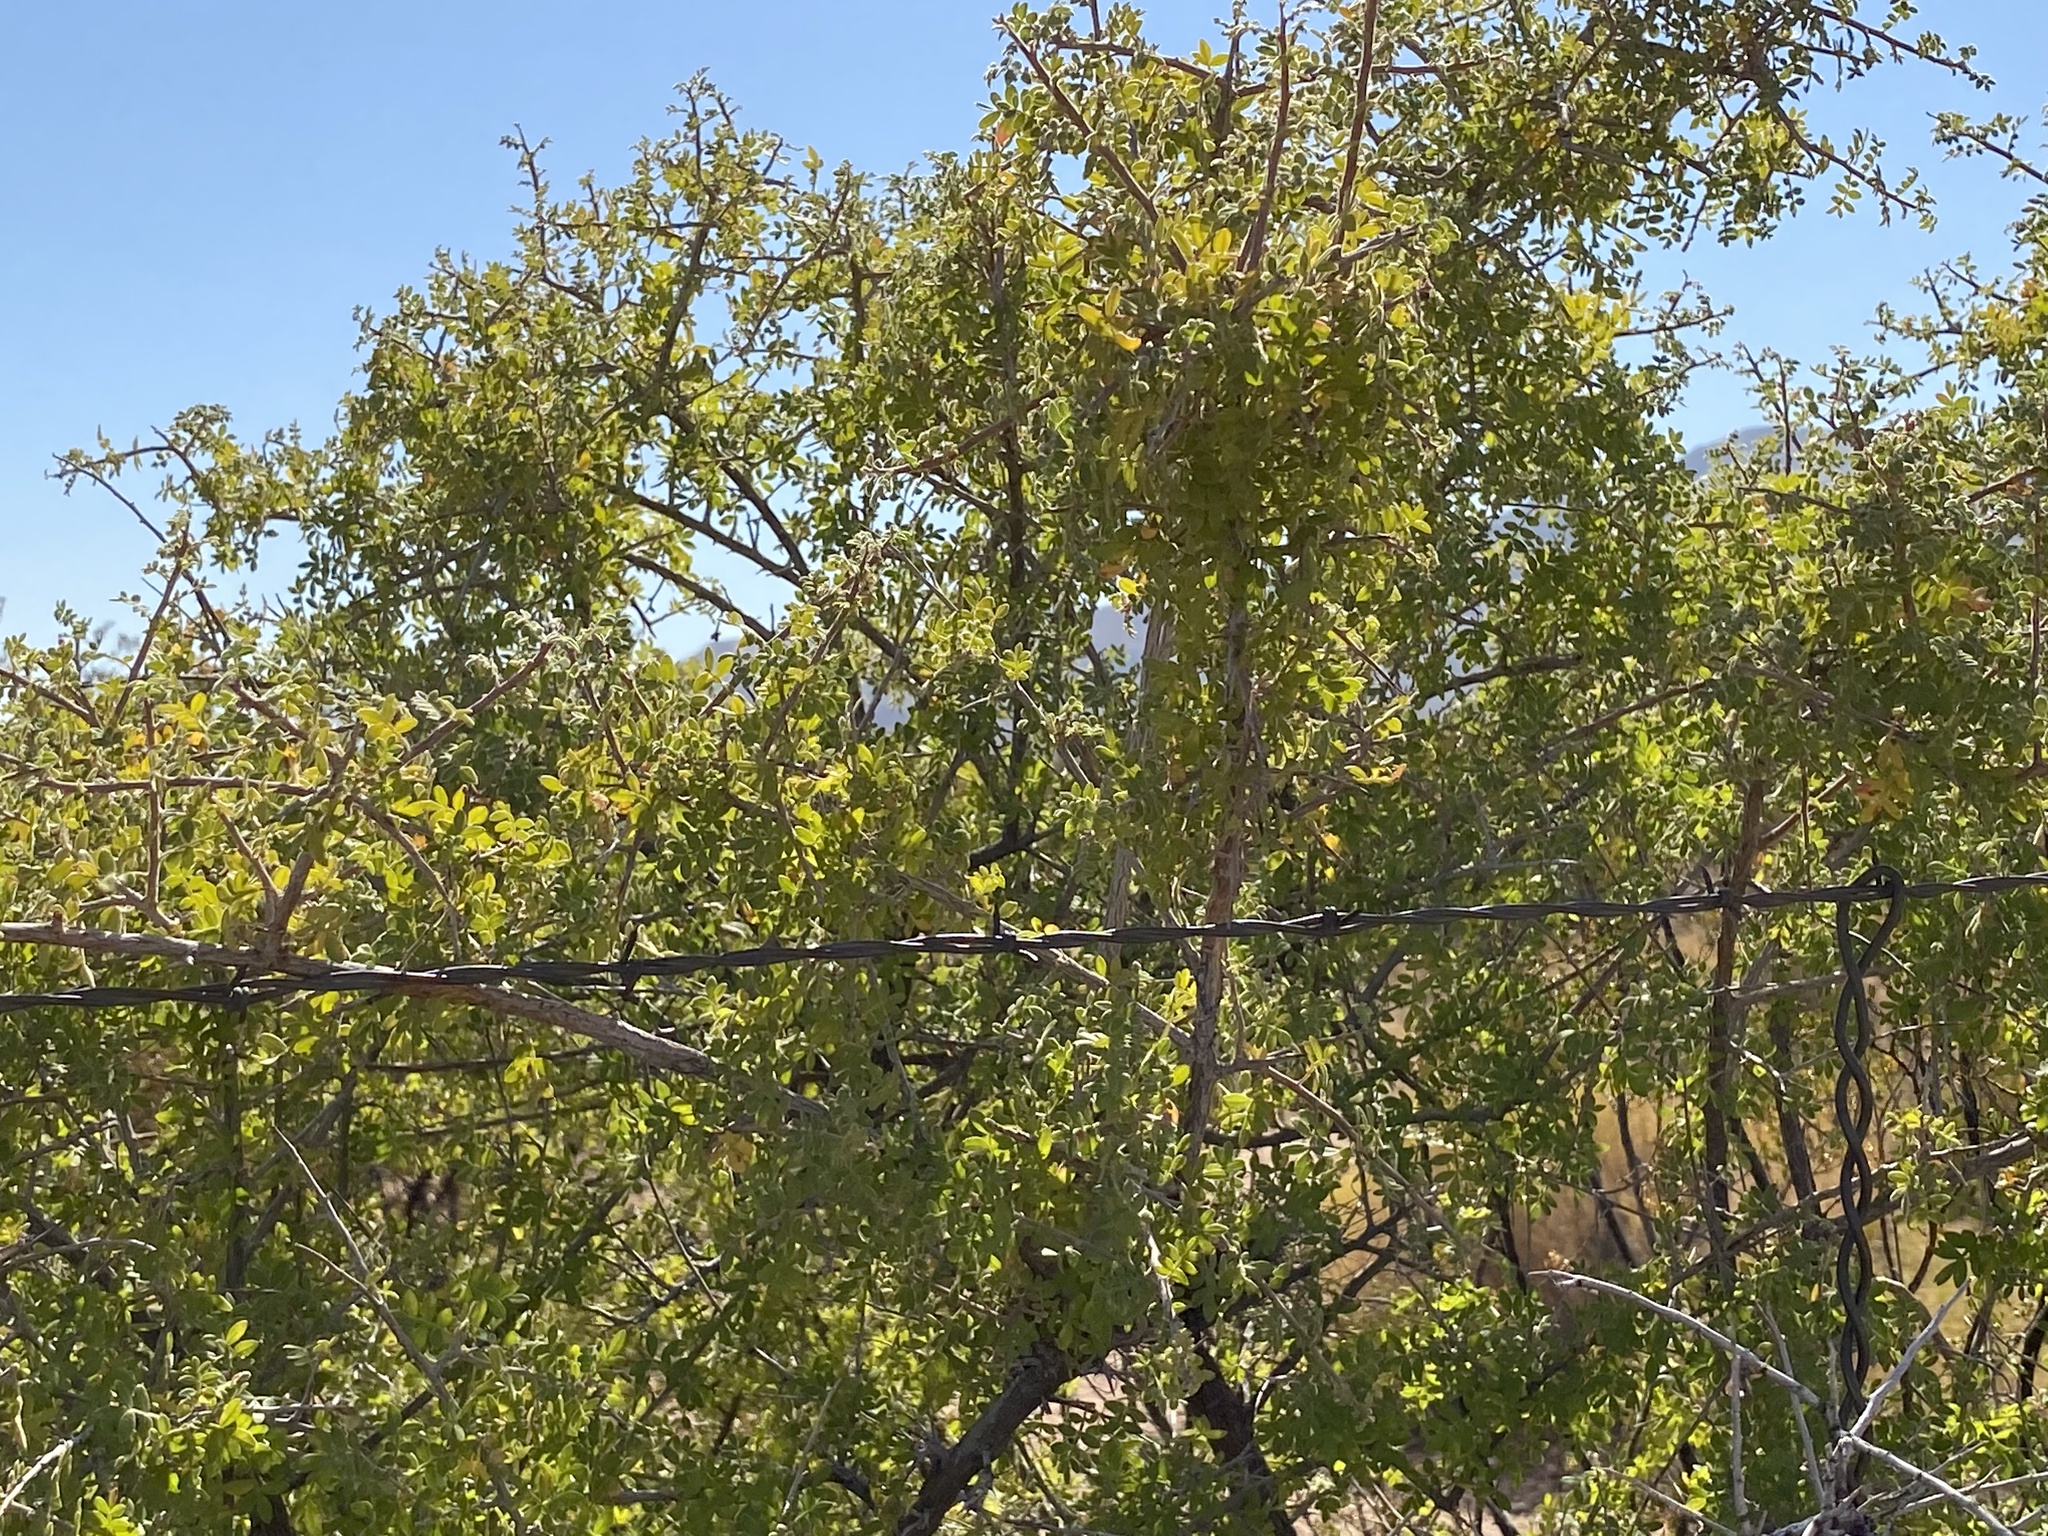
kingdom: Plantae
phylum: Tracheophyta
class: Magnoliopsida
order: Sapindales
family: Anacardiaceae
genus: Rhus
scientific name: Rhus microphylla
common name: Desert sumac
